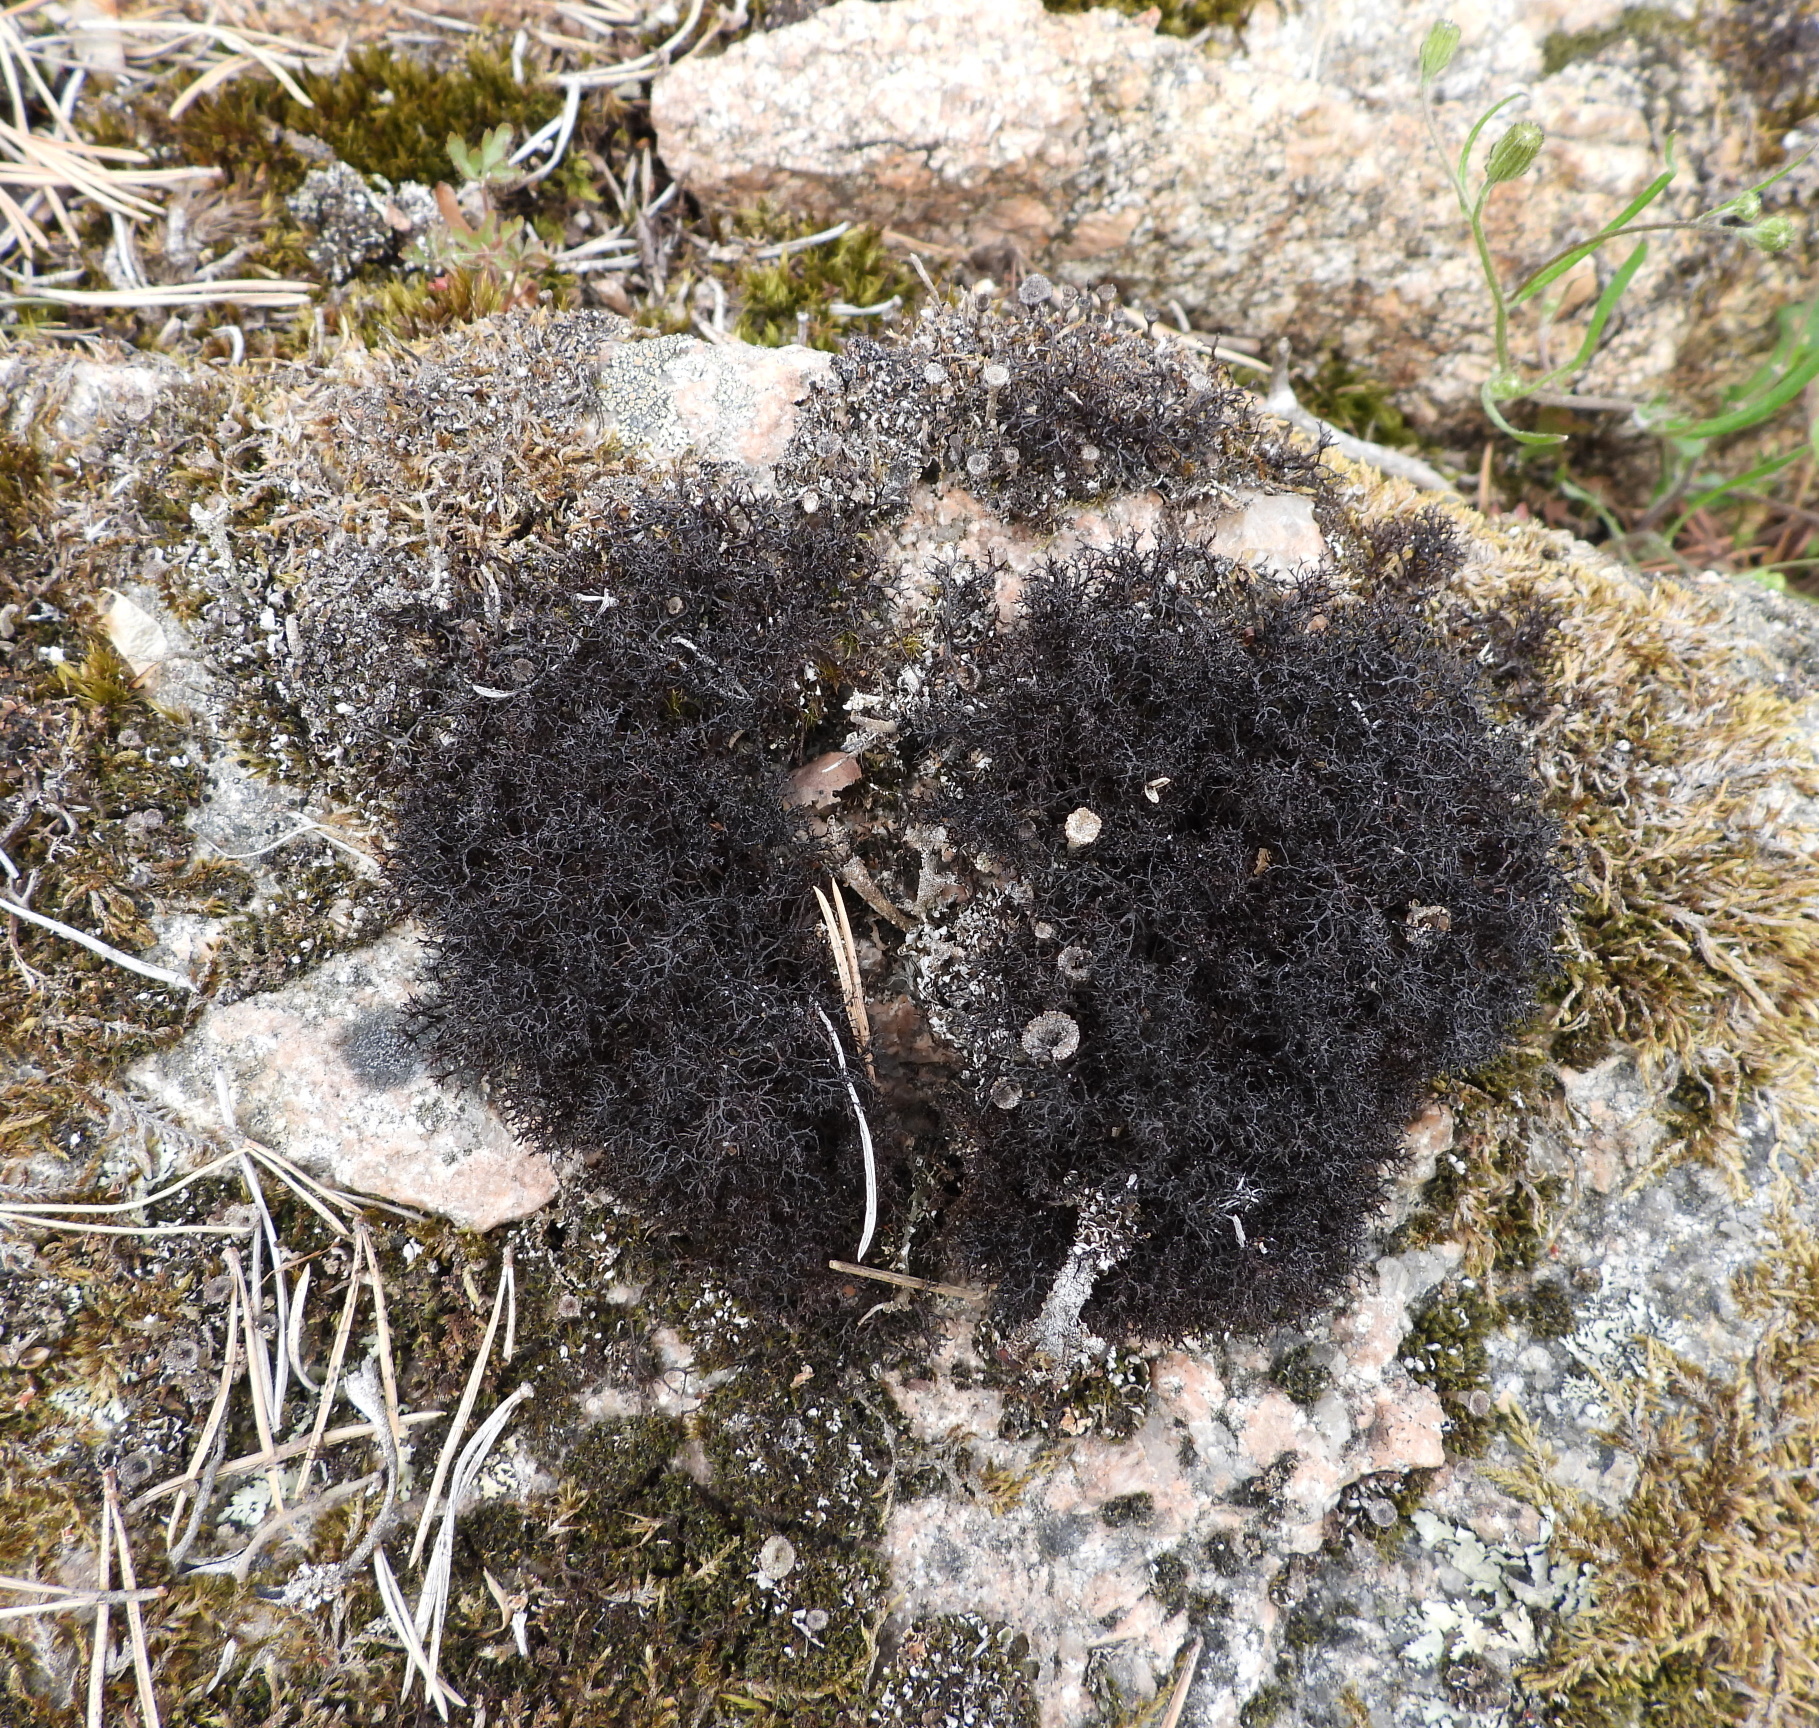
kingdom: Fungi
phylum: Ascomycota
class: Lecanoromycetes
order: Lecanorales
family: Parmeliaceae
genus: Cetraria
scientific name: Cetraria muricata
